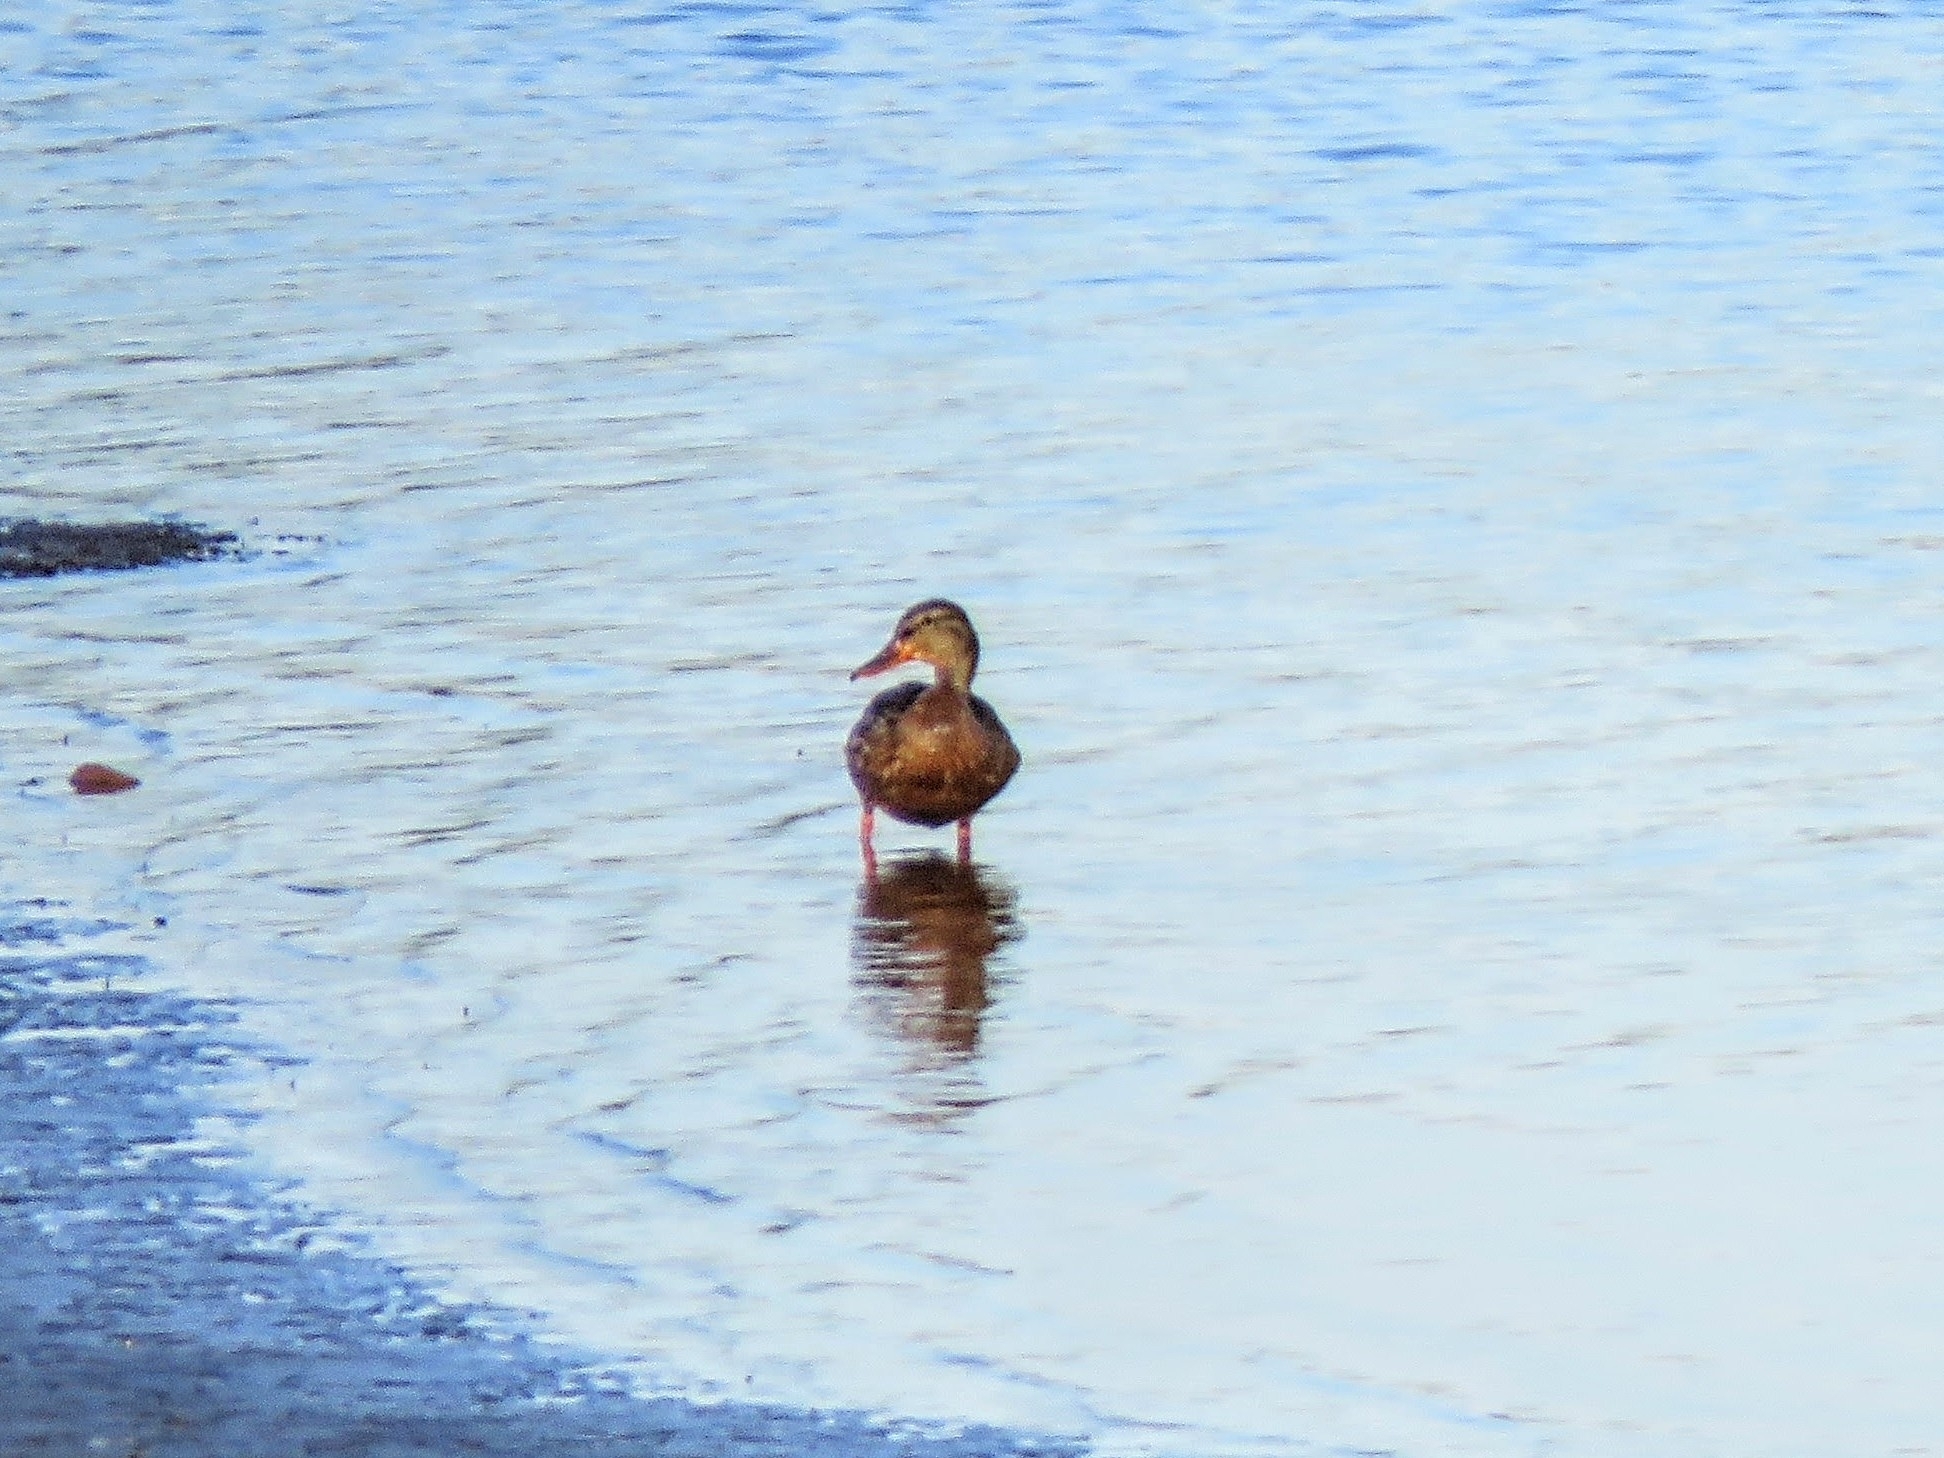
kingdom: Animalia
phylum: Chordata
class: Aves
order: Anseriformes
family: Anatidae
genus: Anas
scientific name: Anas platyrhynchos
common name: Mallard
